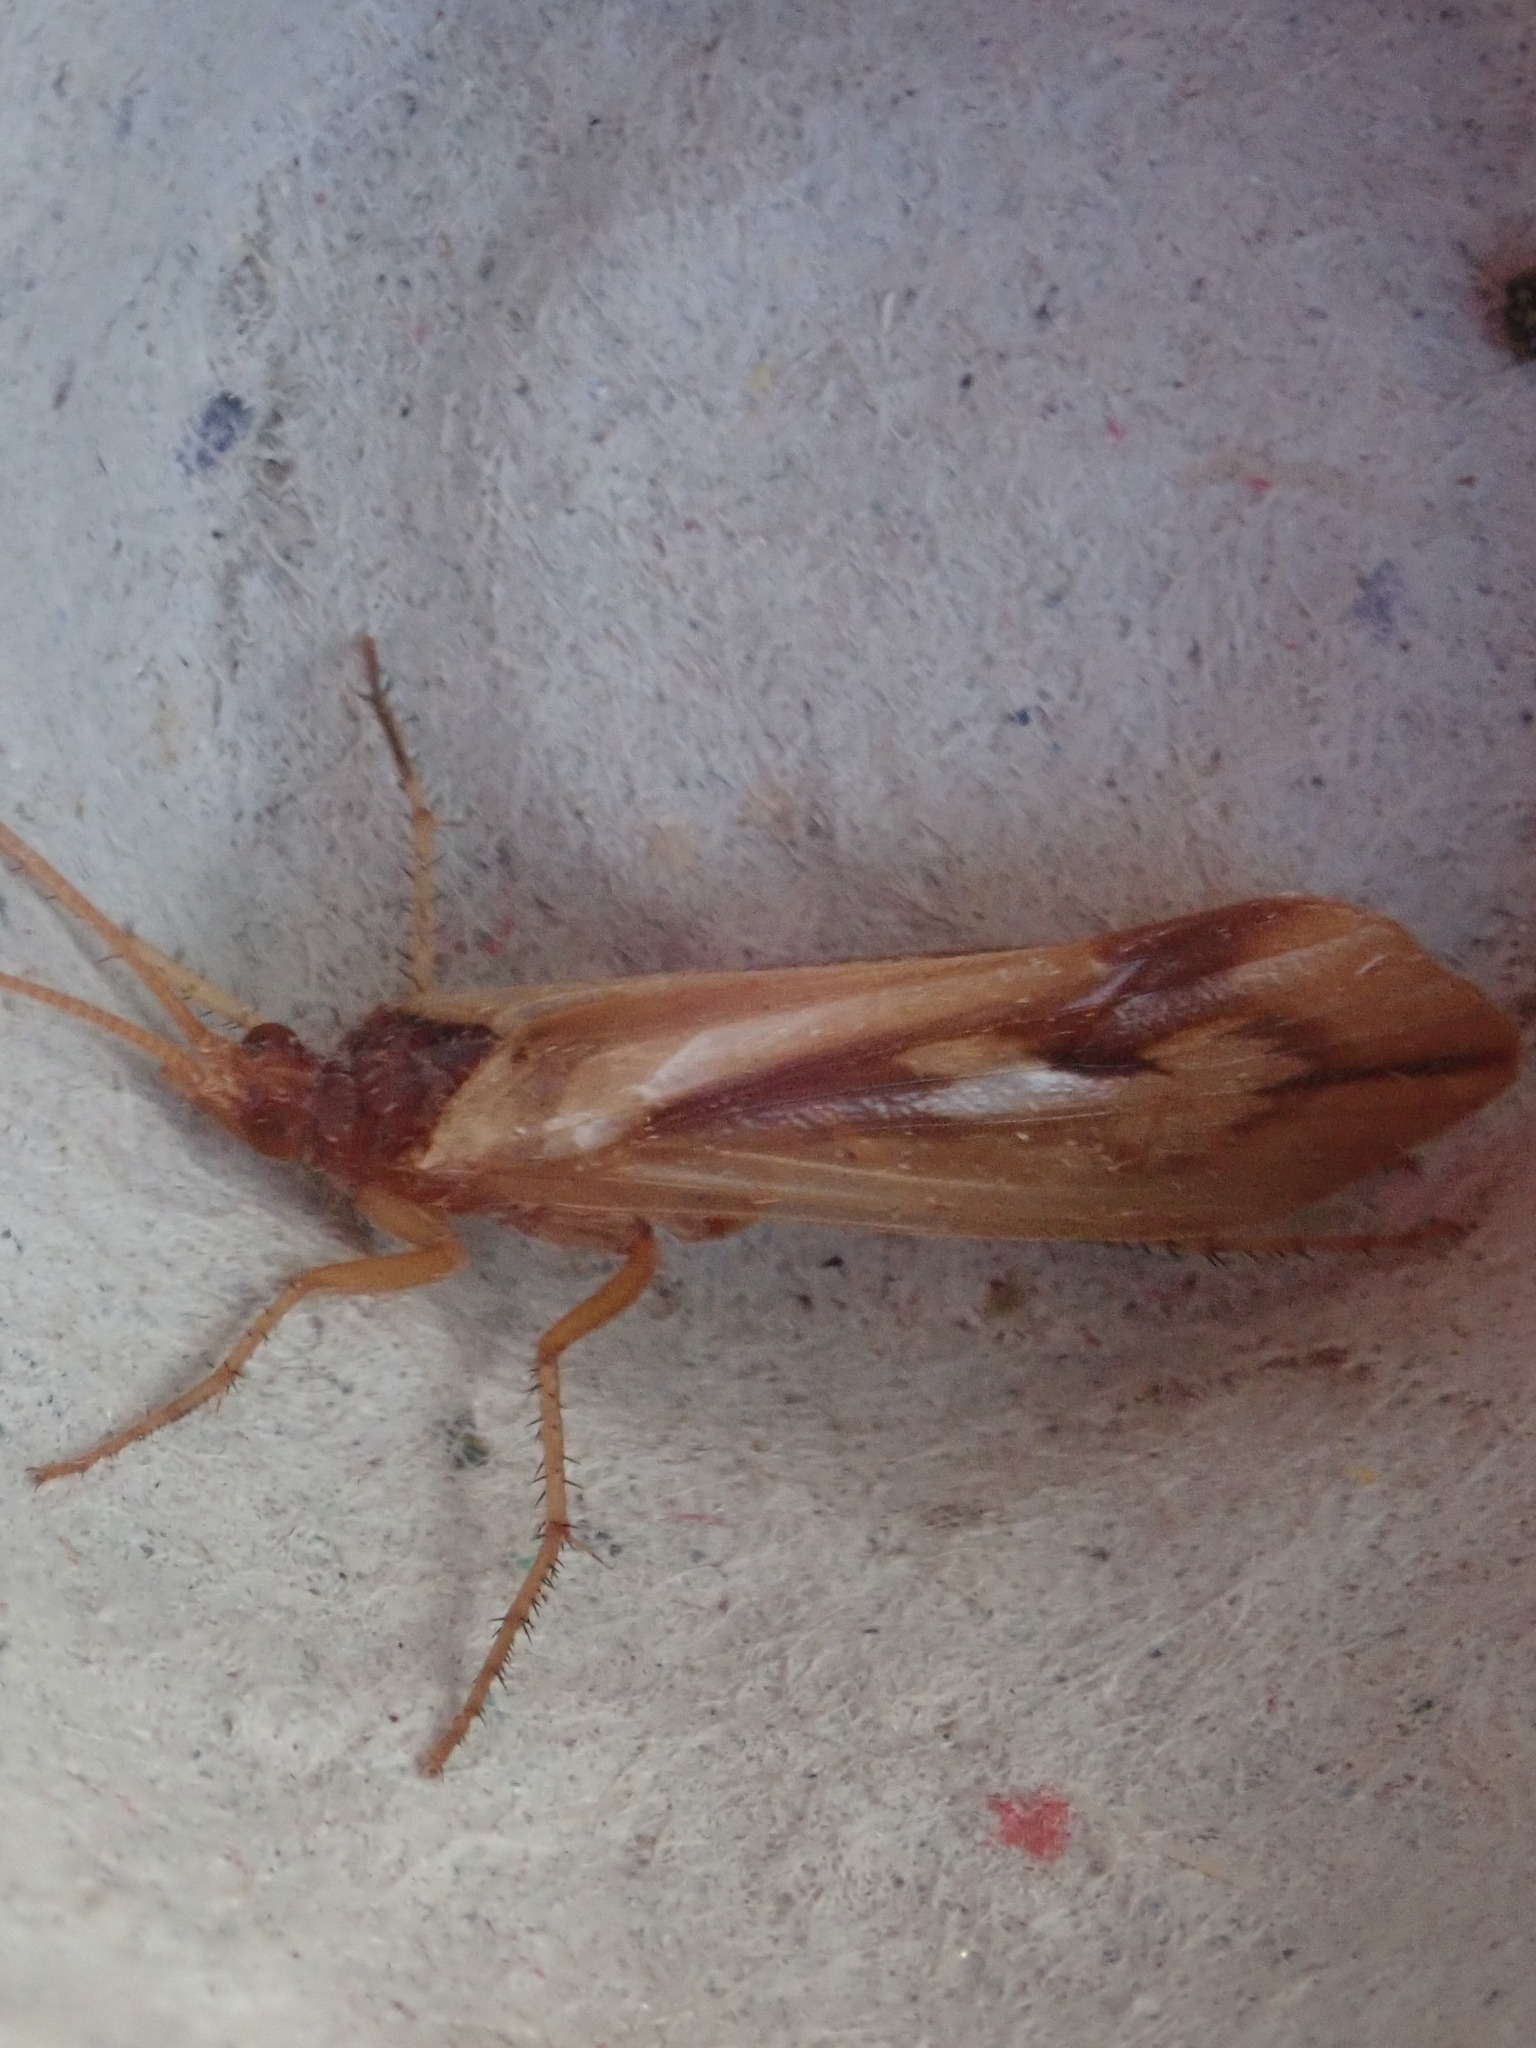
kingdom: Animalia
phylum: Arthropoda
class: Insecta
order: Trichoptera
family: Limnephilidae
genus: Platycentropus
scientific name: Platycentropus radiatus
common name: Chocolate-and-cream sedge
